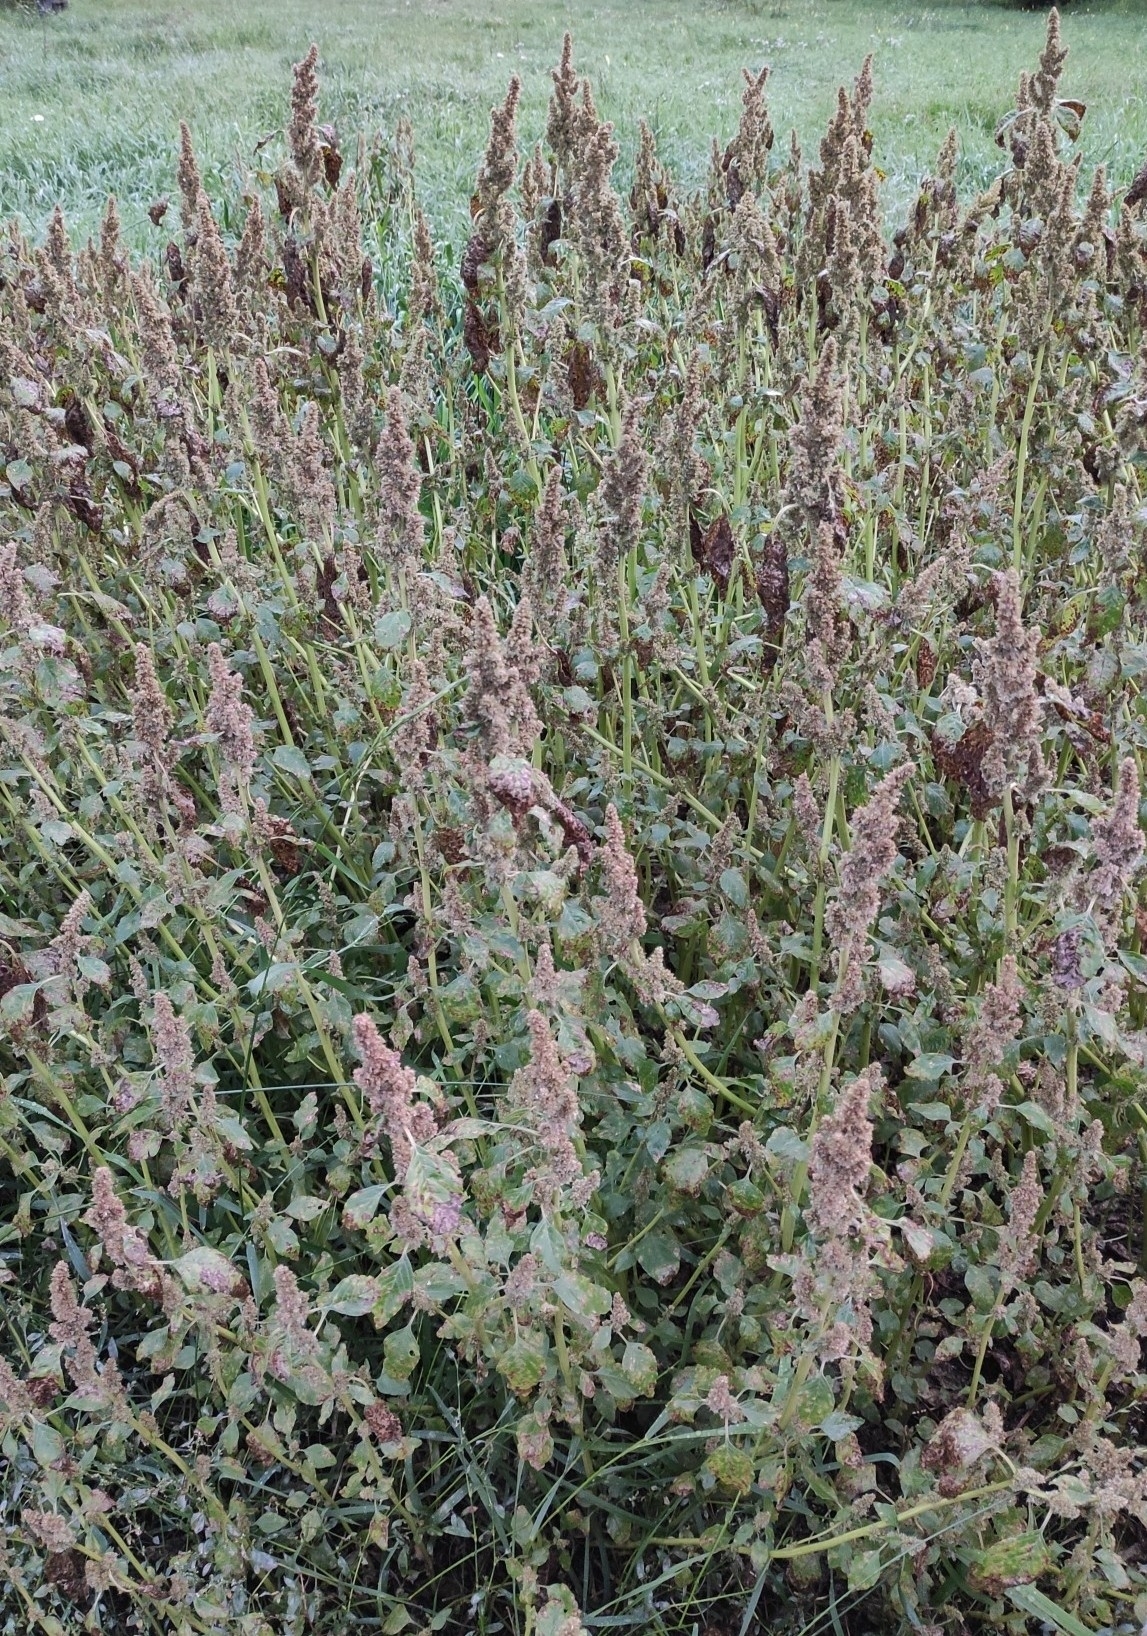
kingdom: Plantae
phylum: Tracheophyta
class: Magnoliopsida
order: Caryophyllales
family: Amaranthaceae
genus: Amaranthus
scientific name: Amaranthus retroflexus
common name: Redroot amaranth
